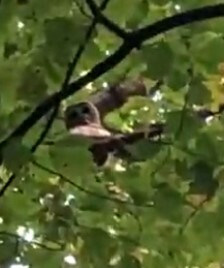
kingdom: Animalia
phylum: Chordata
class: Aves
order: Strigiformes
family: Strigidae
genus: Strix
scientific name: Strix varia
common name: Barred owl
